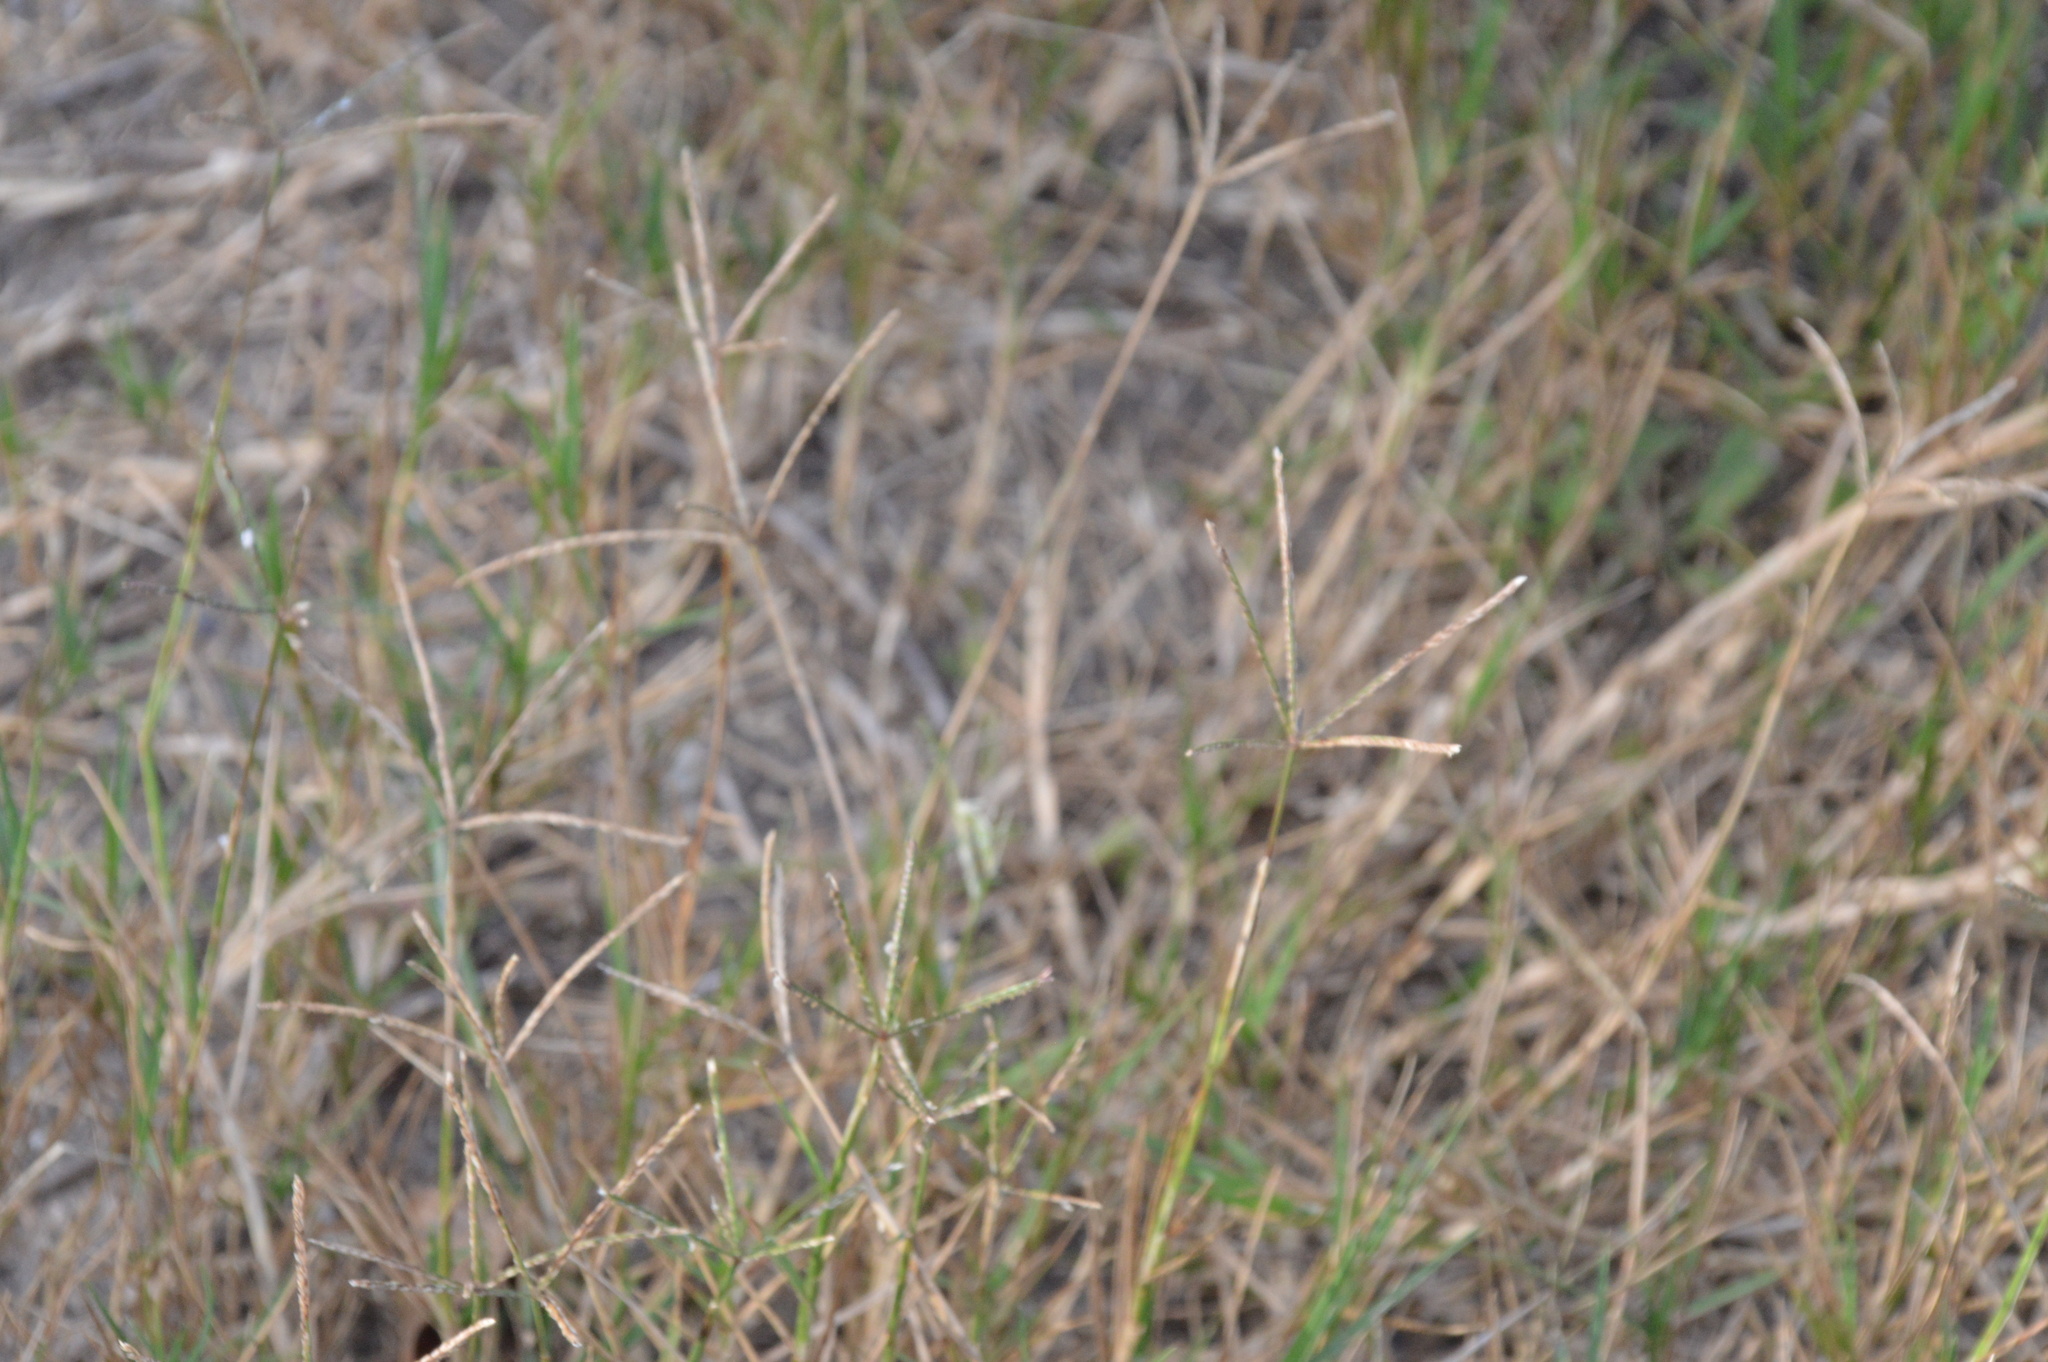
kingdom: Plantae
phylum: Tracheophyta
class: Liliopsida
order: Poales
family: Poaceae
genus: Cynodon
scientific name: Cynodon dactylon
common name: Bermuda grass
